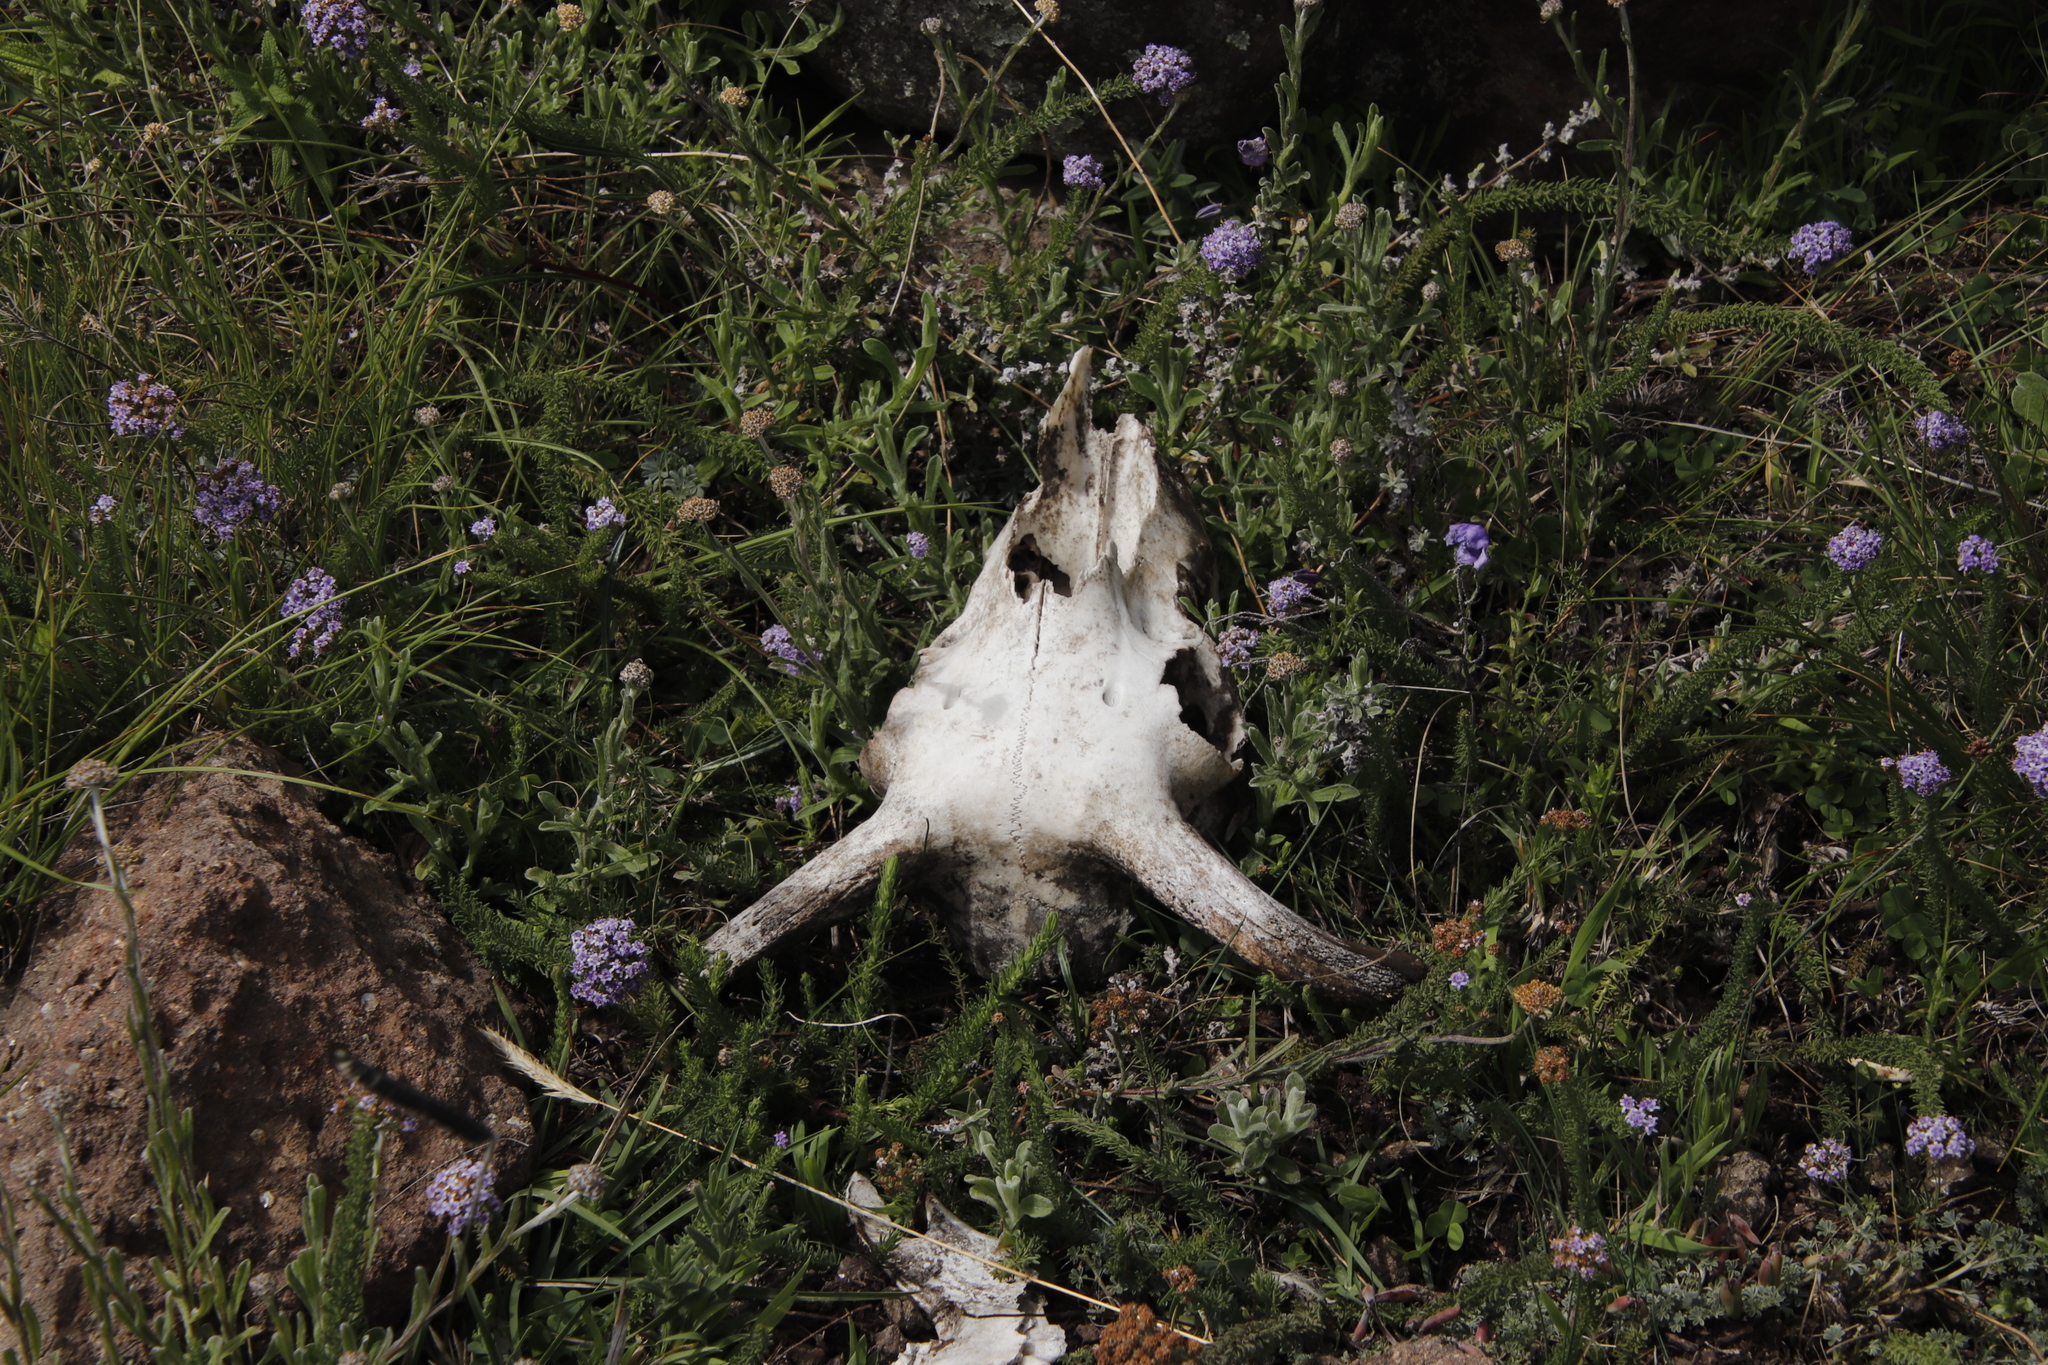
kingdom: Animalia
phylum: Chordata
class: Mammalia
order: Artiodactyla
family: Bovidae
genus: Ovis
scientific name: Ovis aries
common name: Domestic sheep
